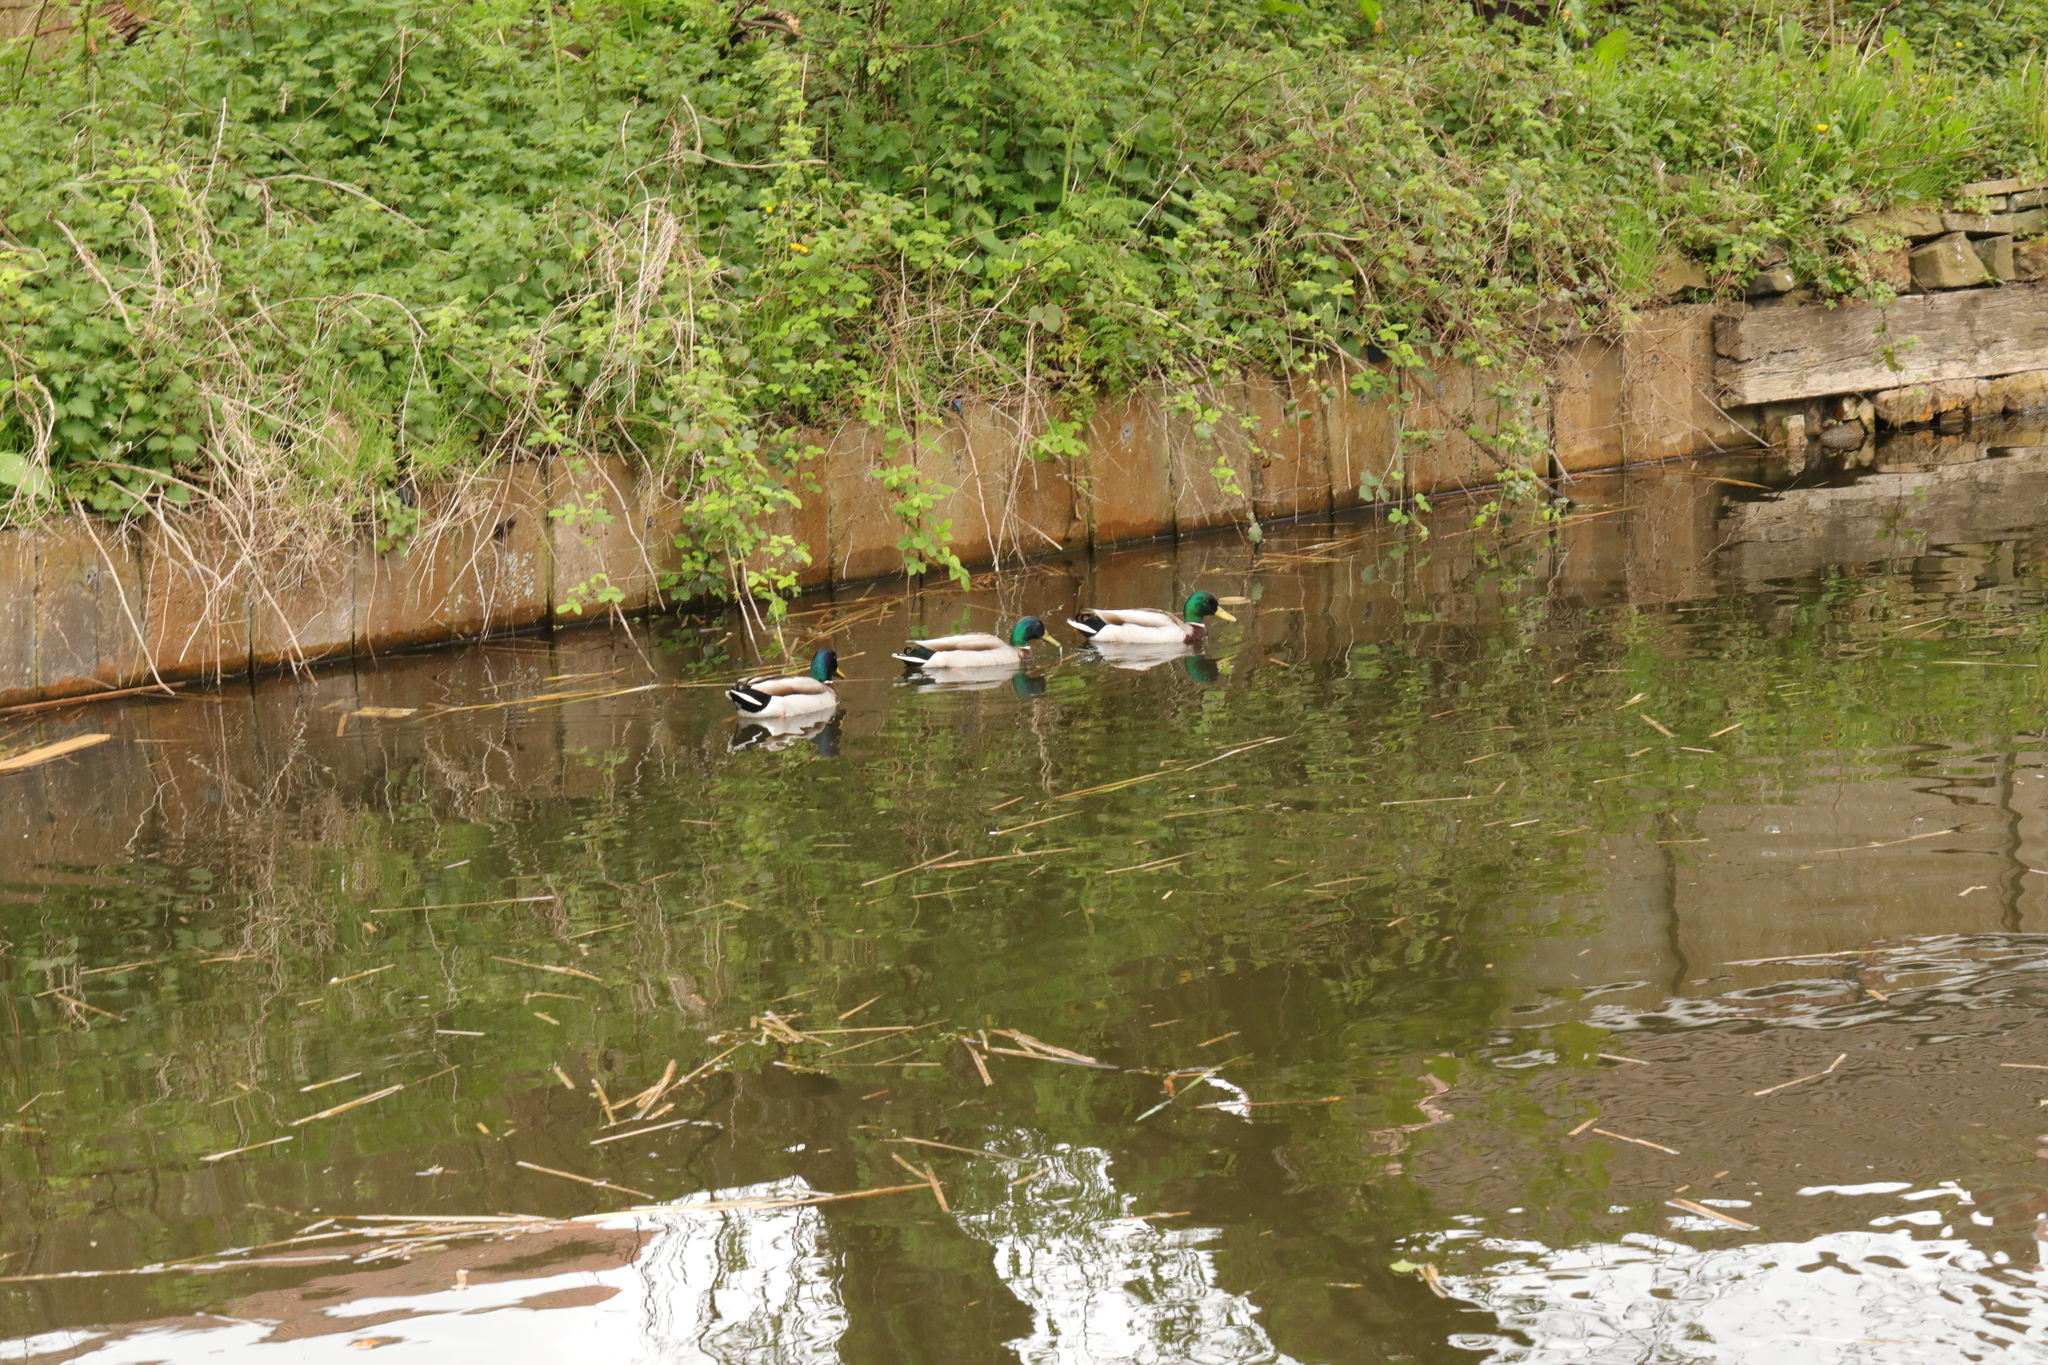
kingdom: Animalia
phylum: Chordata
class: Aves
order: Anseriformes
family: Anatidae
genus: Anas
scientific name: Anas platyrhynchos
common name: Mallard
